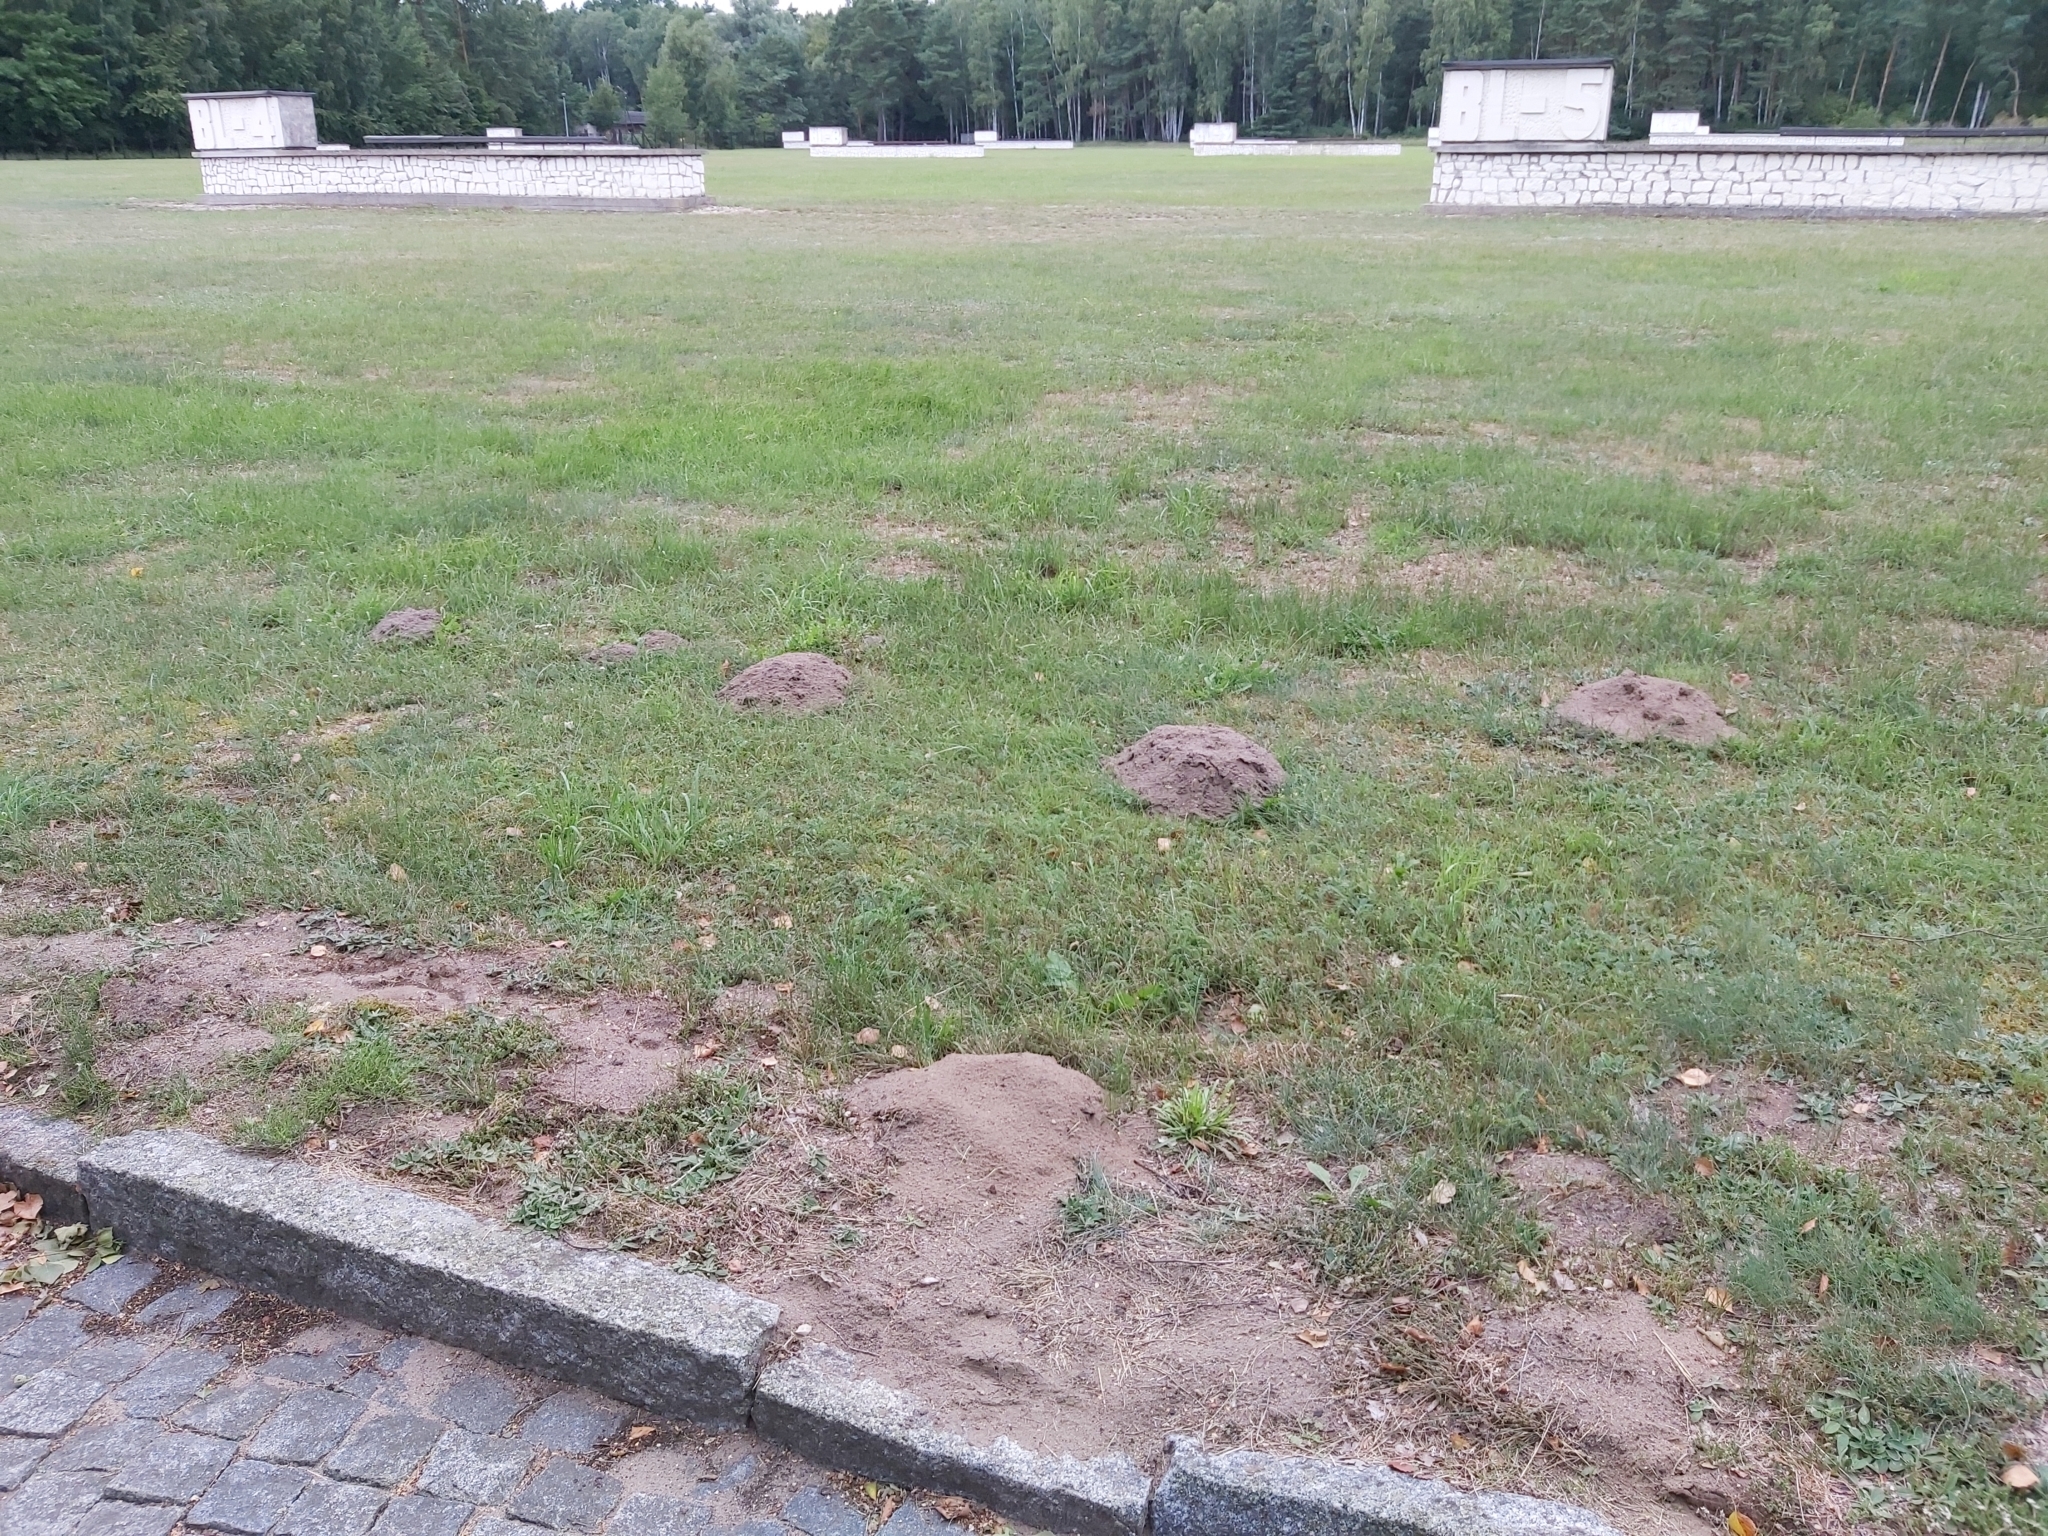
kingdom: Animalia
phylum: Chordata
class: Mammalia
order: Soricomorpha
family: Talpidae
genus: Talpa
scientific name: Talpa europaea
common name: European mole
